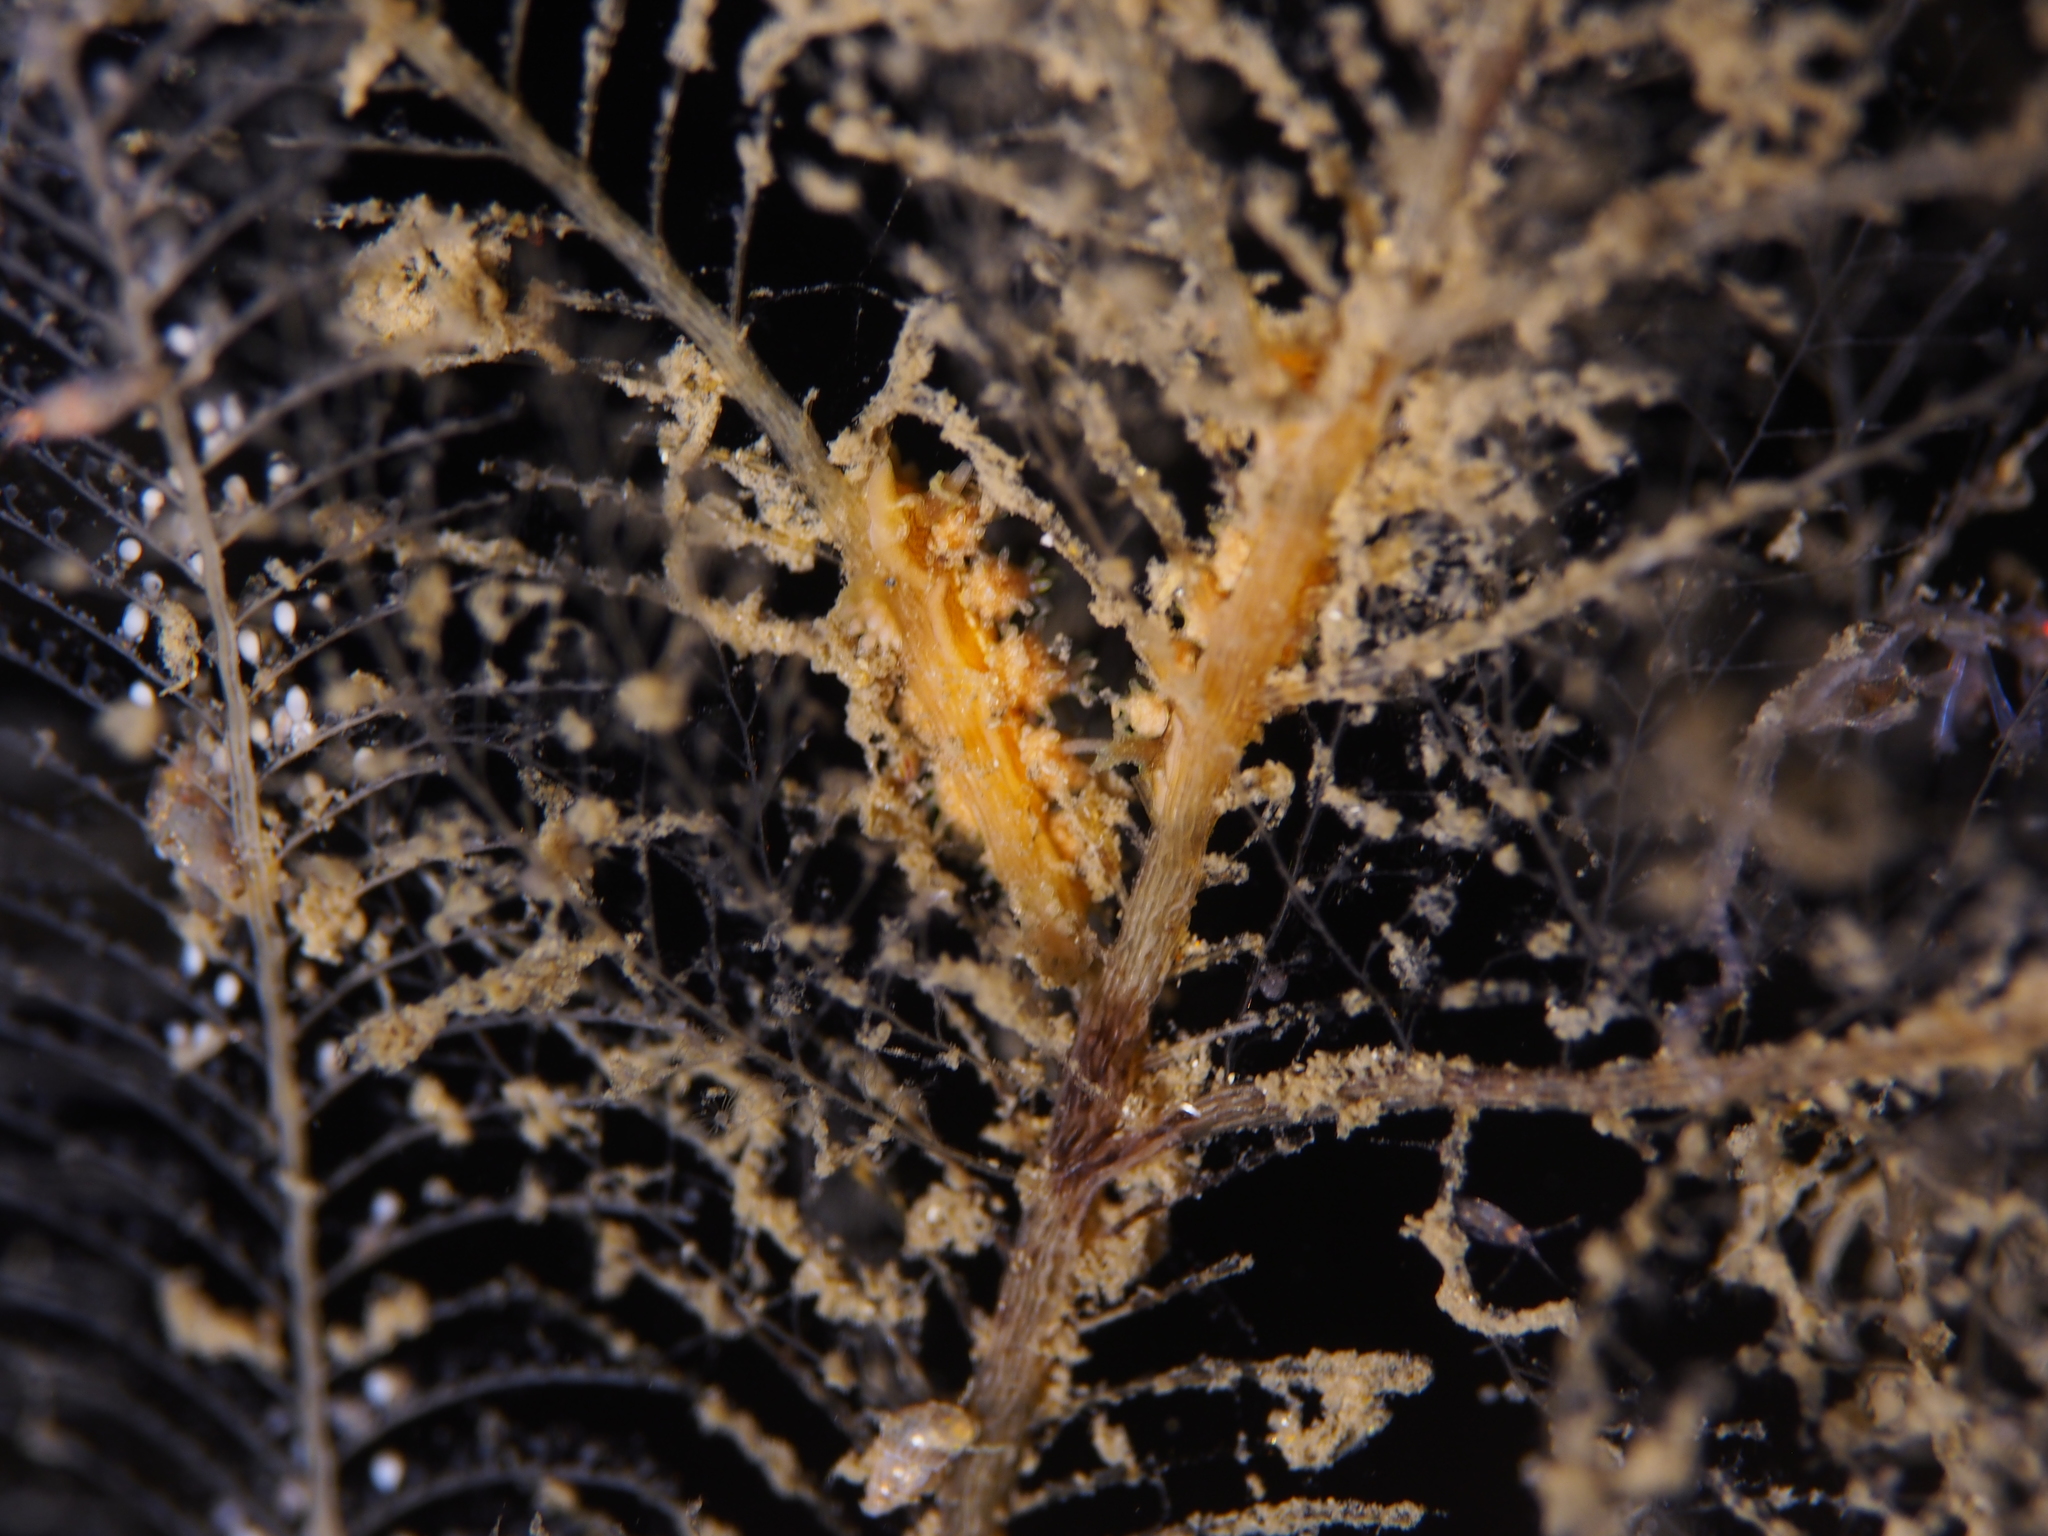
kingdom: Animalia
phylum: Mollusca
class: Gastropoda
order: Nudibranchia
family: Dotidae
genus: Doto
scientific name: Doto hystrix
